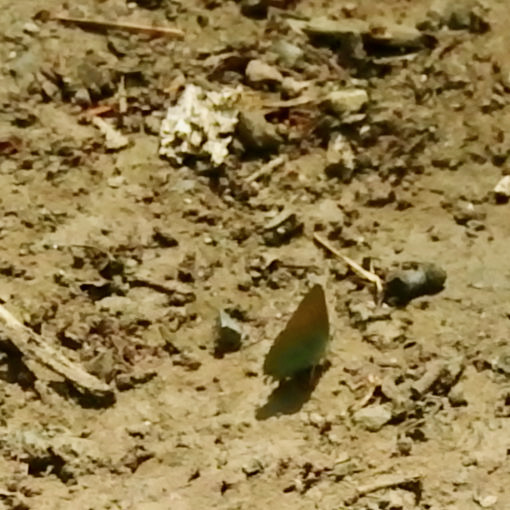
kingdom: Animalia
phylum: Arthropoda
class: Insecta
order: Lepidoptera
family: Lycaenidae
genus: Callophrys
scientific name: Callophrys dumetorum
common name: Bramble hairstreak
